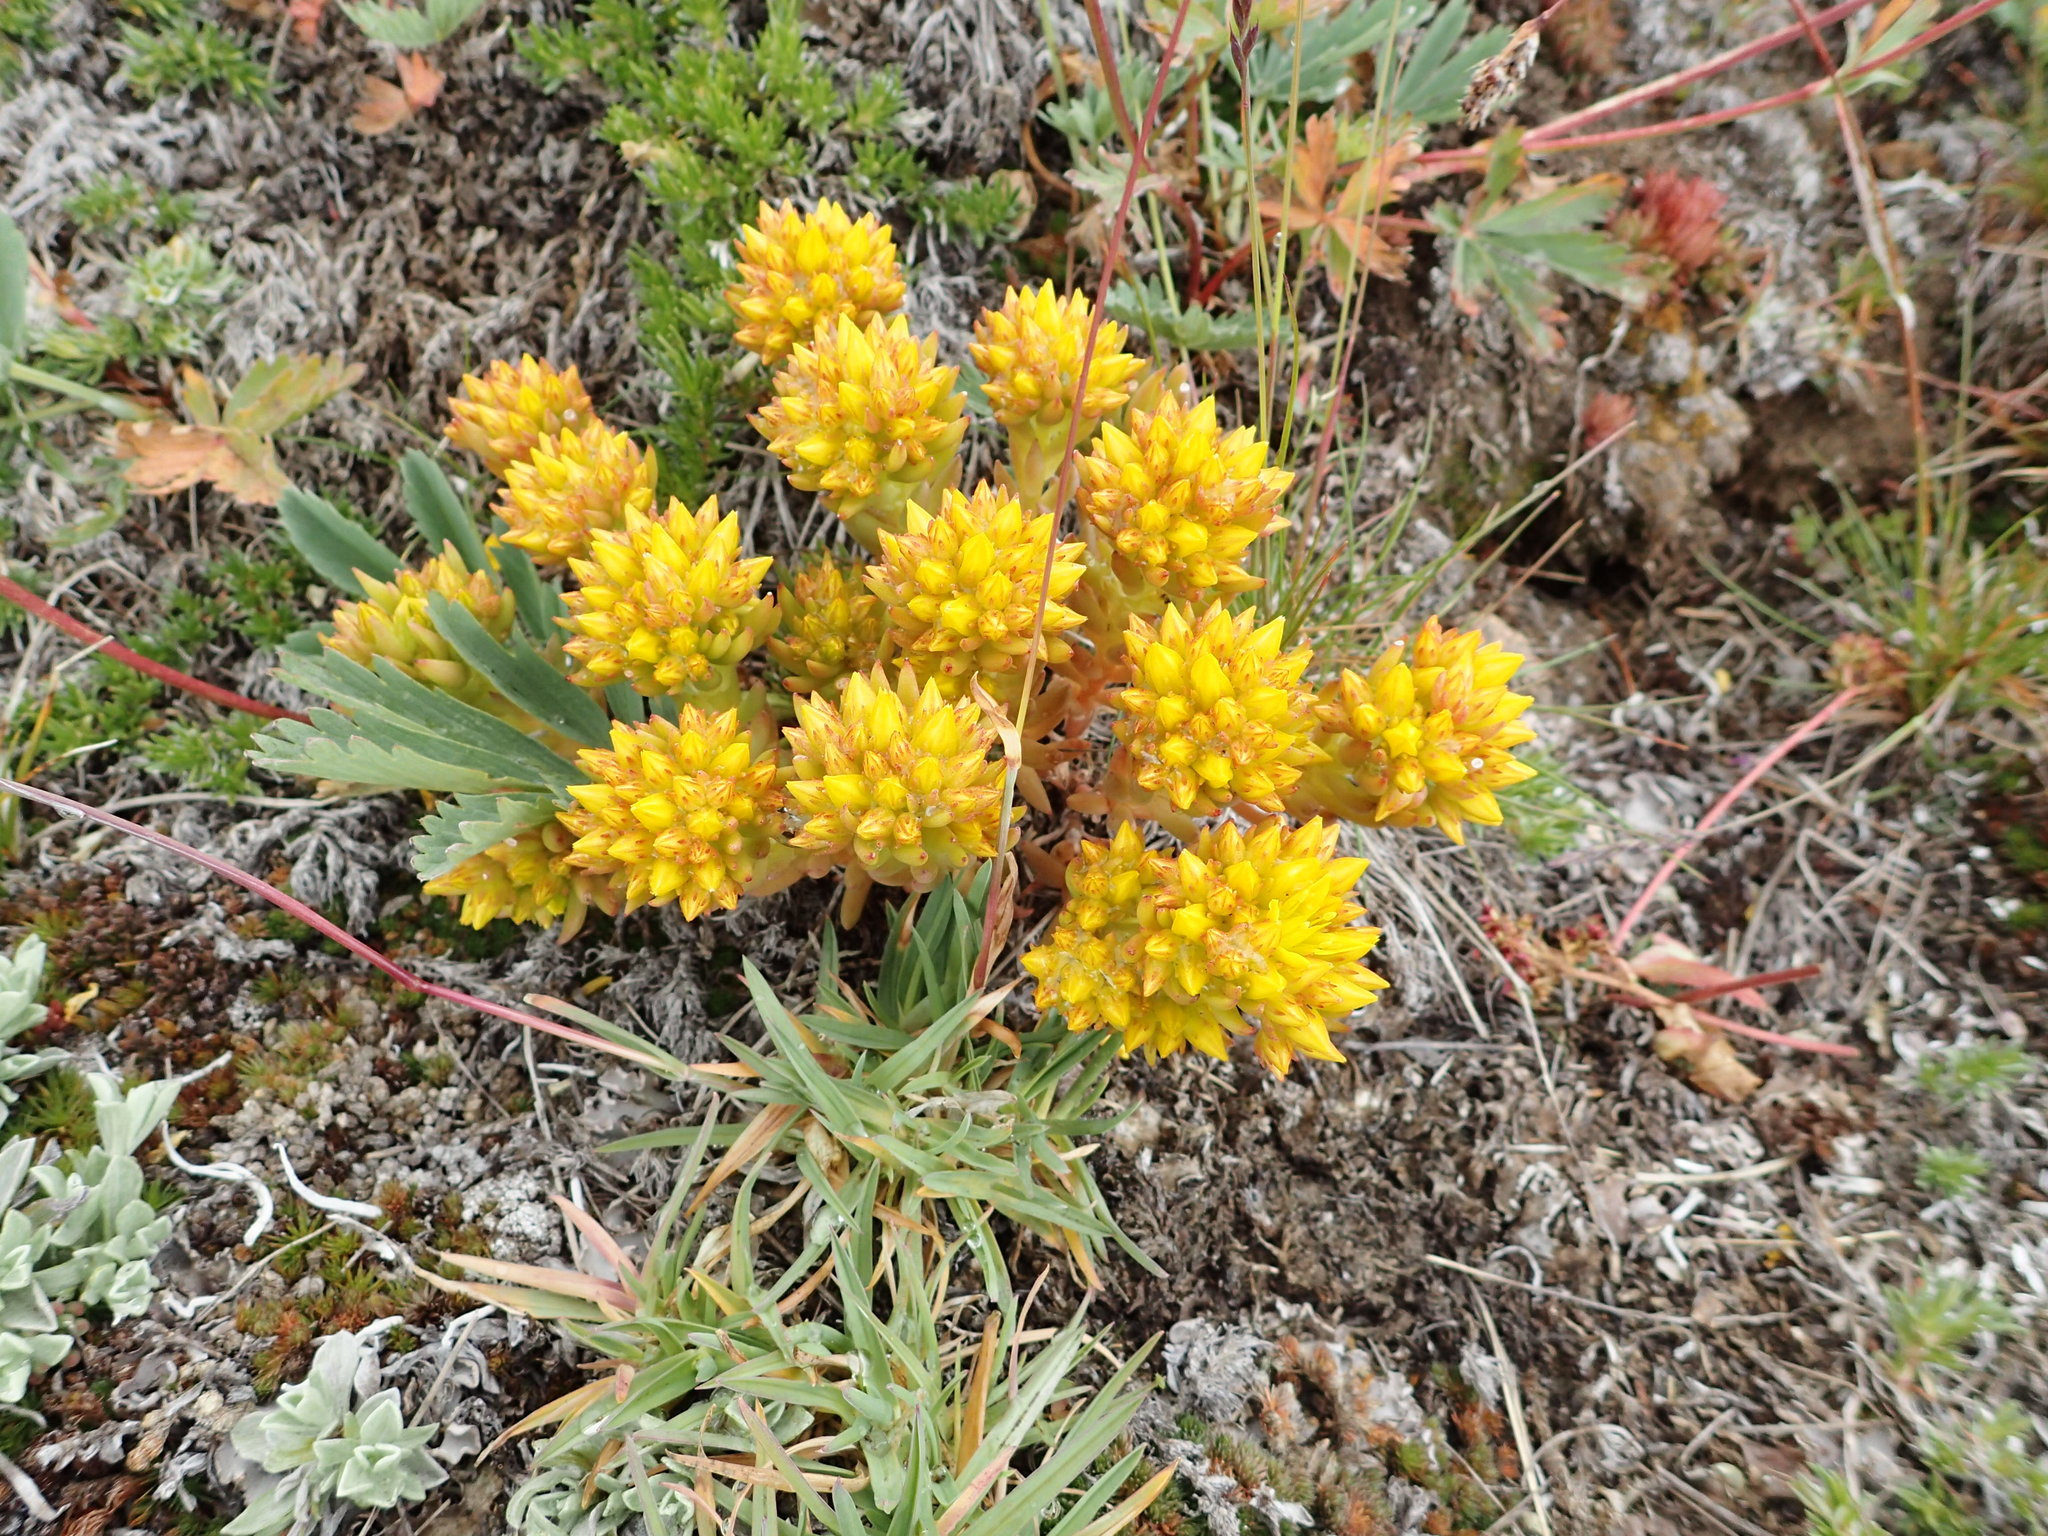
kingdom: Plantae
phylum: Tracheophyta
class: Magnoliopsida
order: Saxifragales
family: Crassulaceae
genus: Sedum
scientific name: Sedum lanceolatum
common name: Common stonecrop
